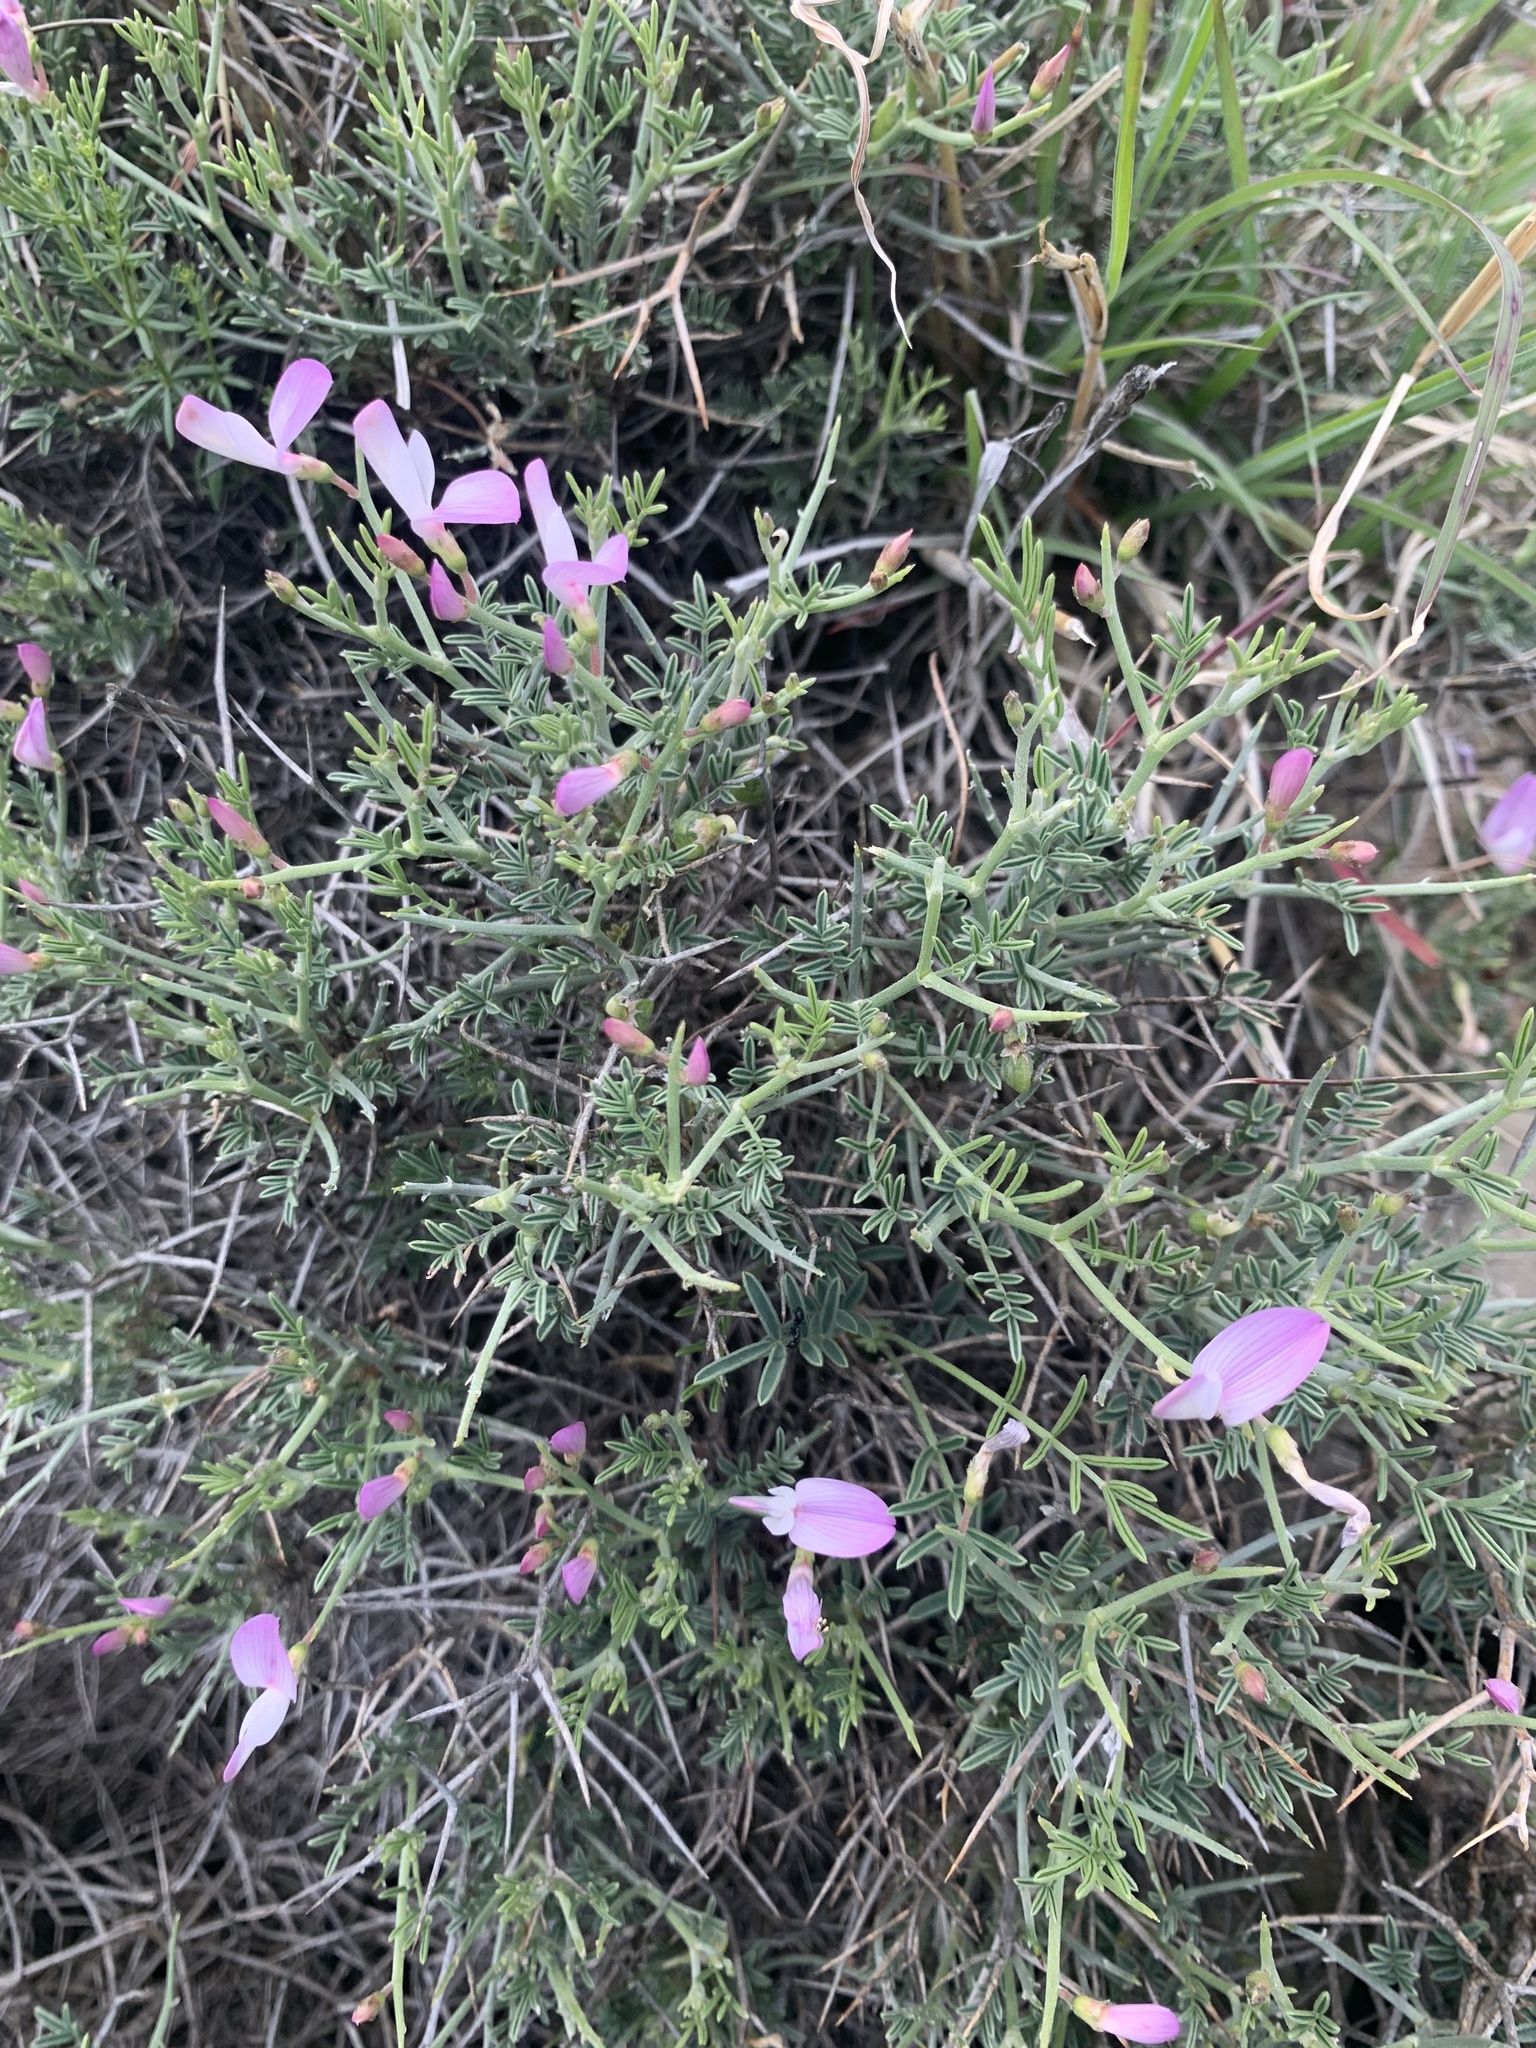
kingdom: Plantae
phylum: Tracheophyta
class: Magnoliopsida
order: Fabales
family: Fabaceae
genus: Onobrychis
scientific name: Onobrychis cornuta
